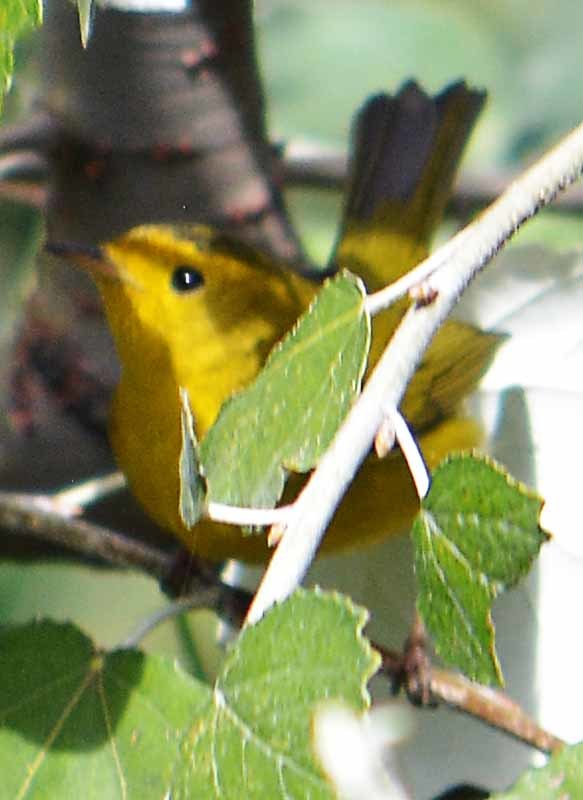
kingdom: Animalia
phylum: Chordata
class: Aves
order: Passeriformes
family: Parulidae
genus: Cardellina
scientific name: Cardellina pusilla
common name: Wilson's warbler
